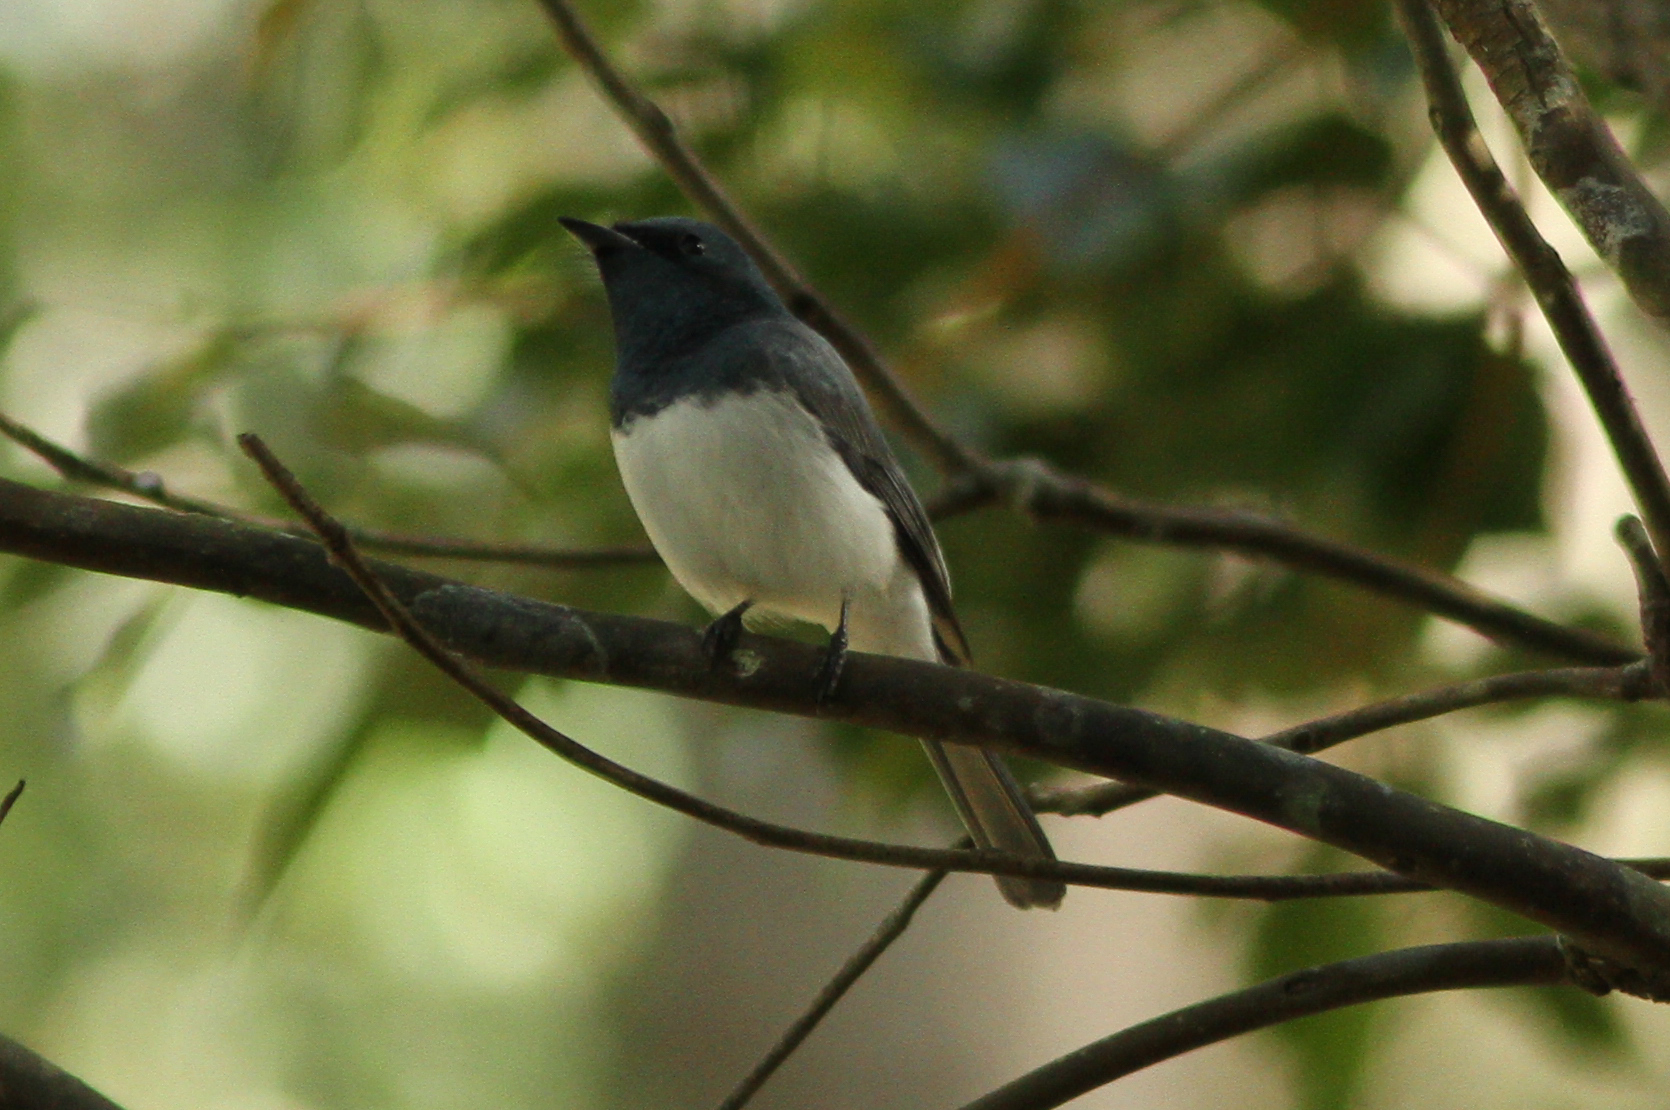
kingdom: Animalia
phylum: Chordata
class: Aves
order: Passeriformes
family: Monarchidae
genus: Myiagra
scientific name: Myiagra rubecula
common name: Leaden flycatcher
